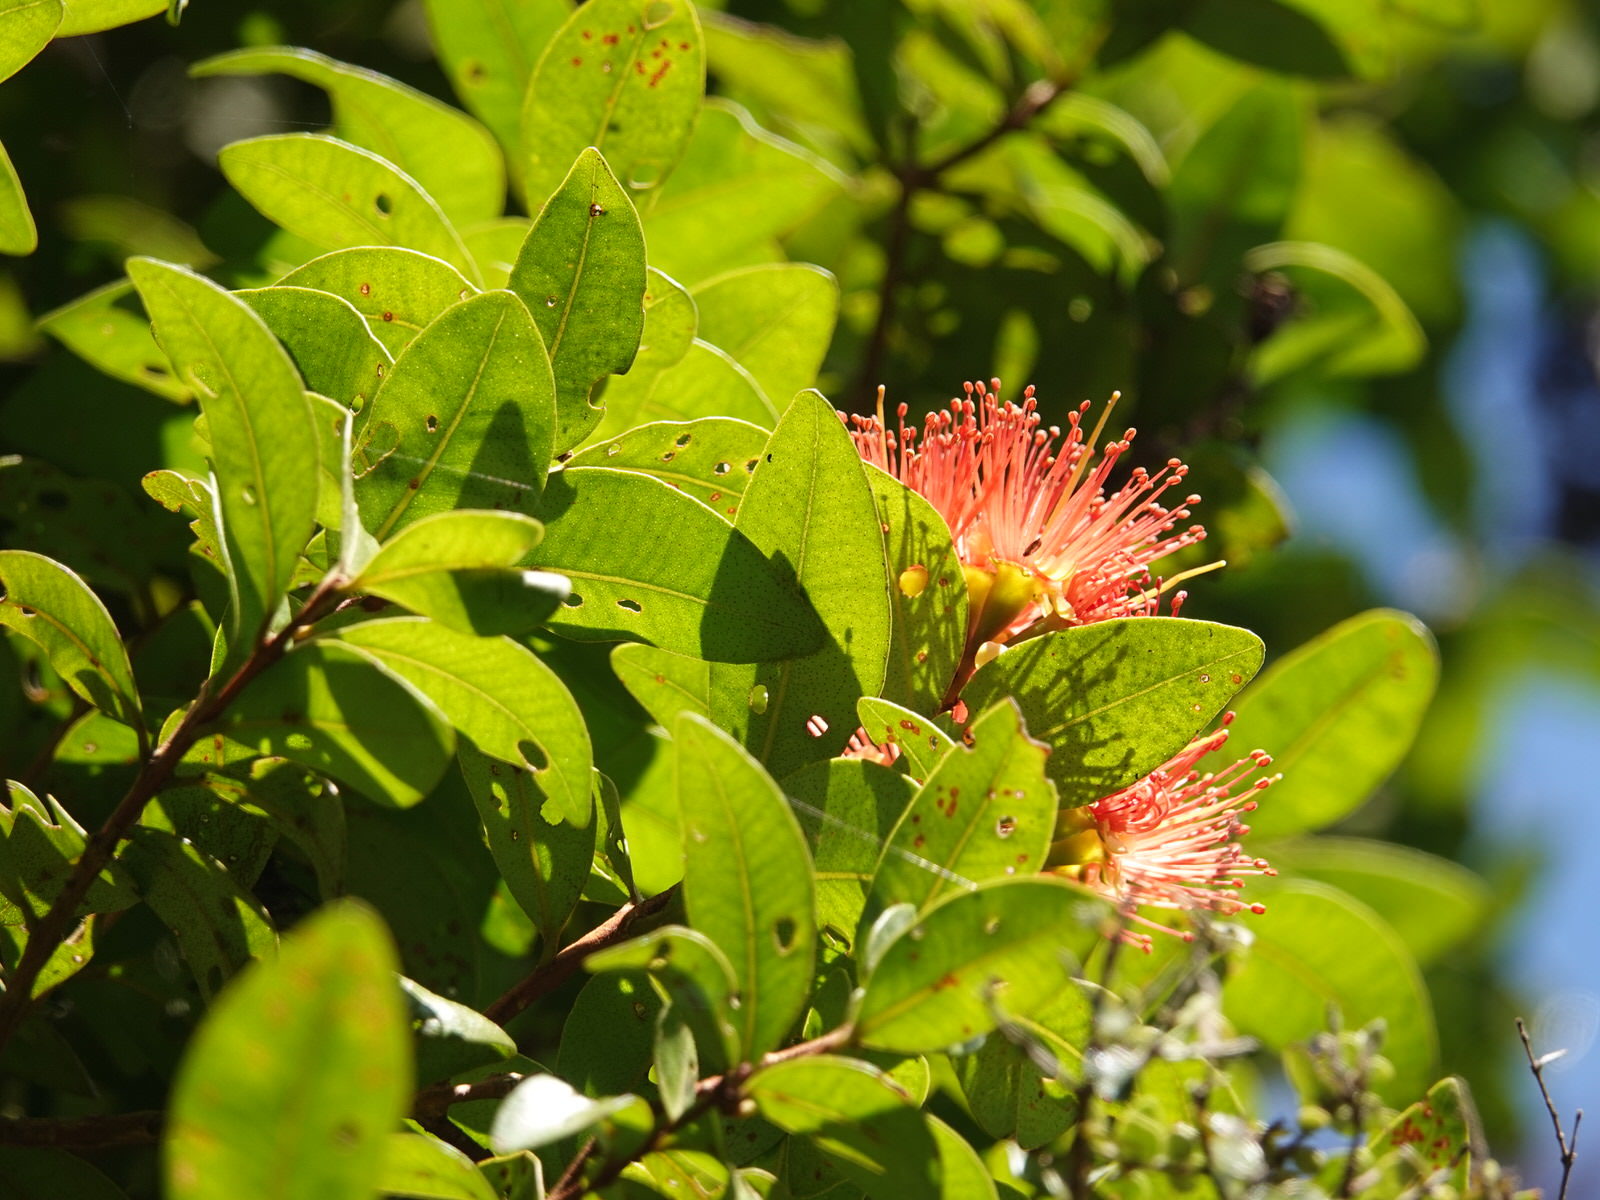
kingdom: Plantae
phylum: Tracheophyta
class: Magnoliopsida
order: Myrtales
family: Myrtaceae
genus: Metrosideros
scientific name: Metrosideros fulgens
